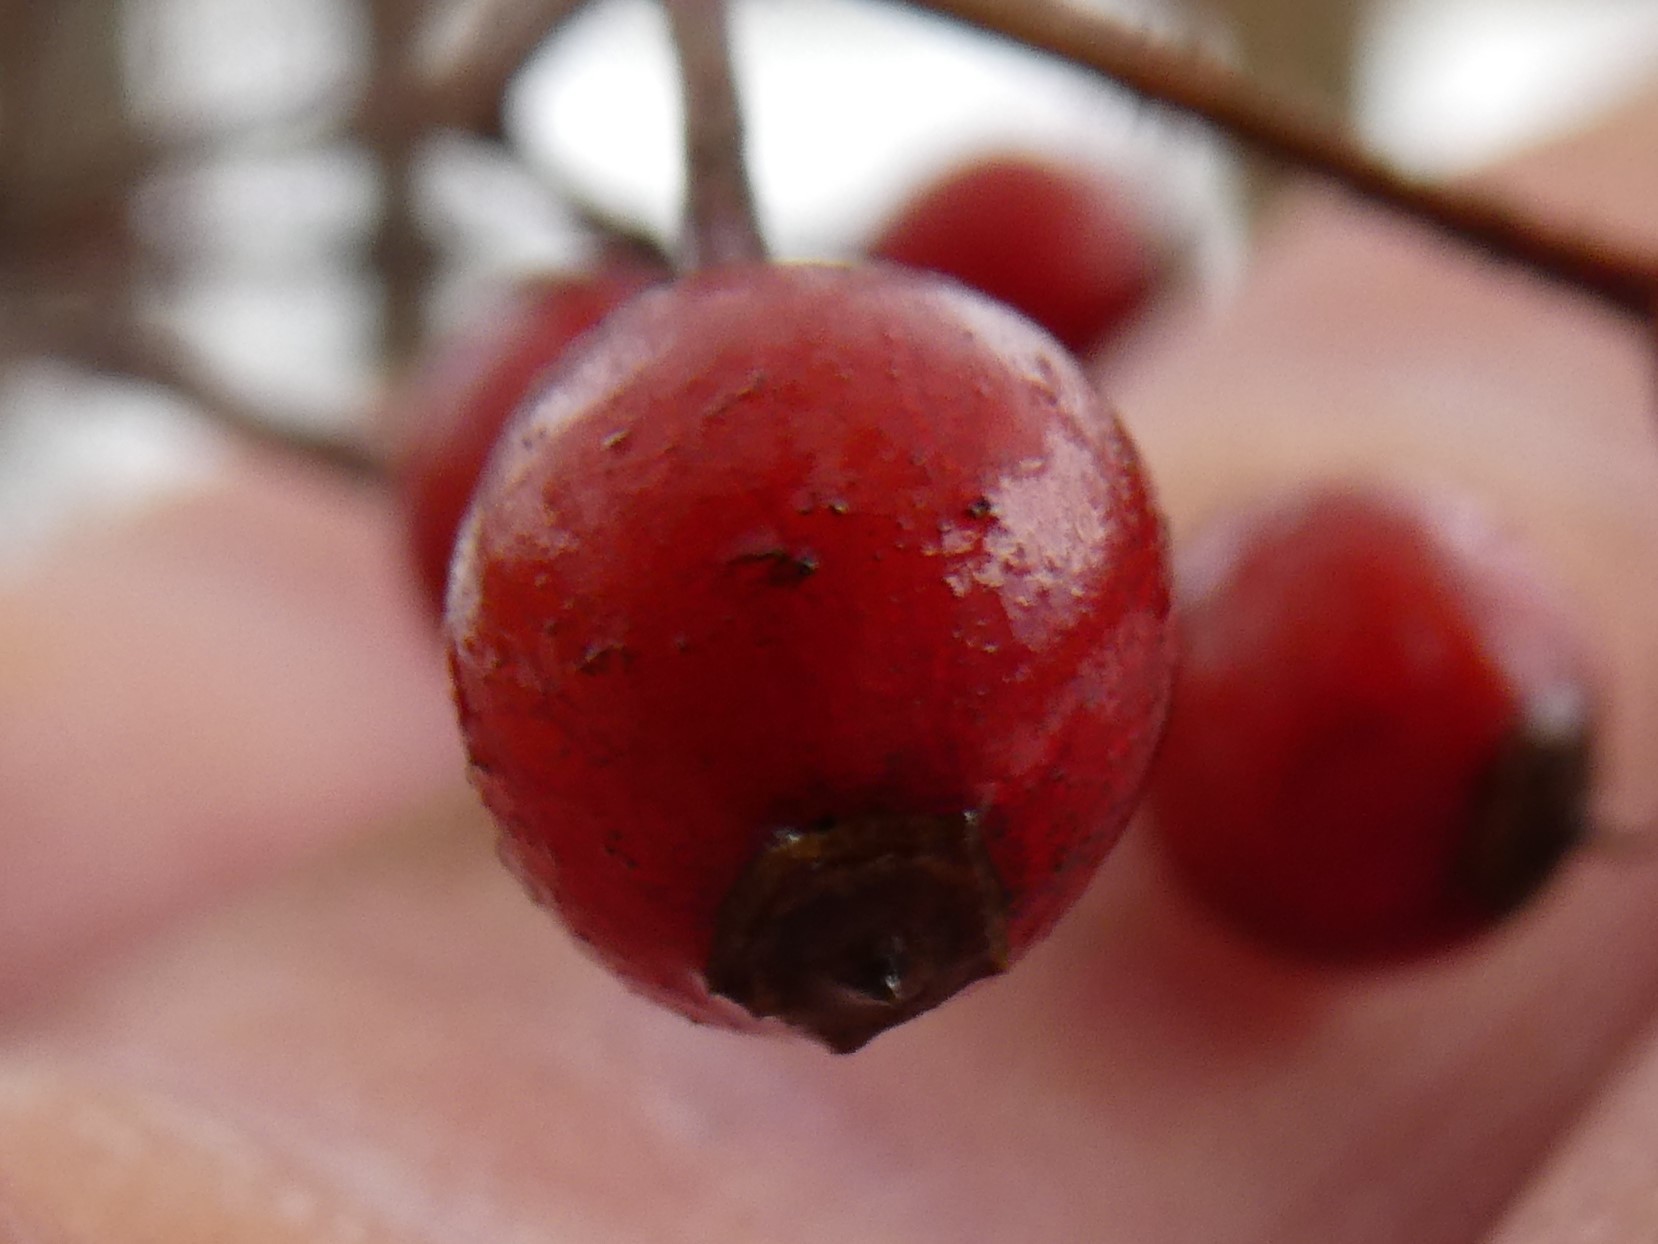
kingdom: Plantae
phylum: Tracheophyta
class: Magnoliopsida
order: Rosales
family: Rosaceae
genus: Rosa
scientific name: Rosa multiflora
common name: Multiflora rose
